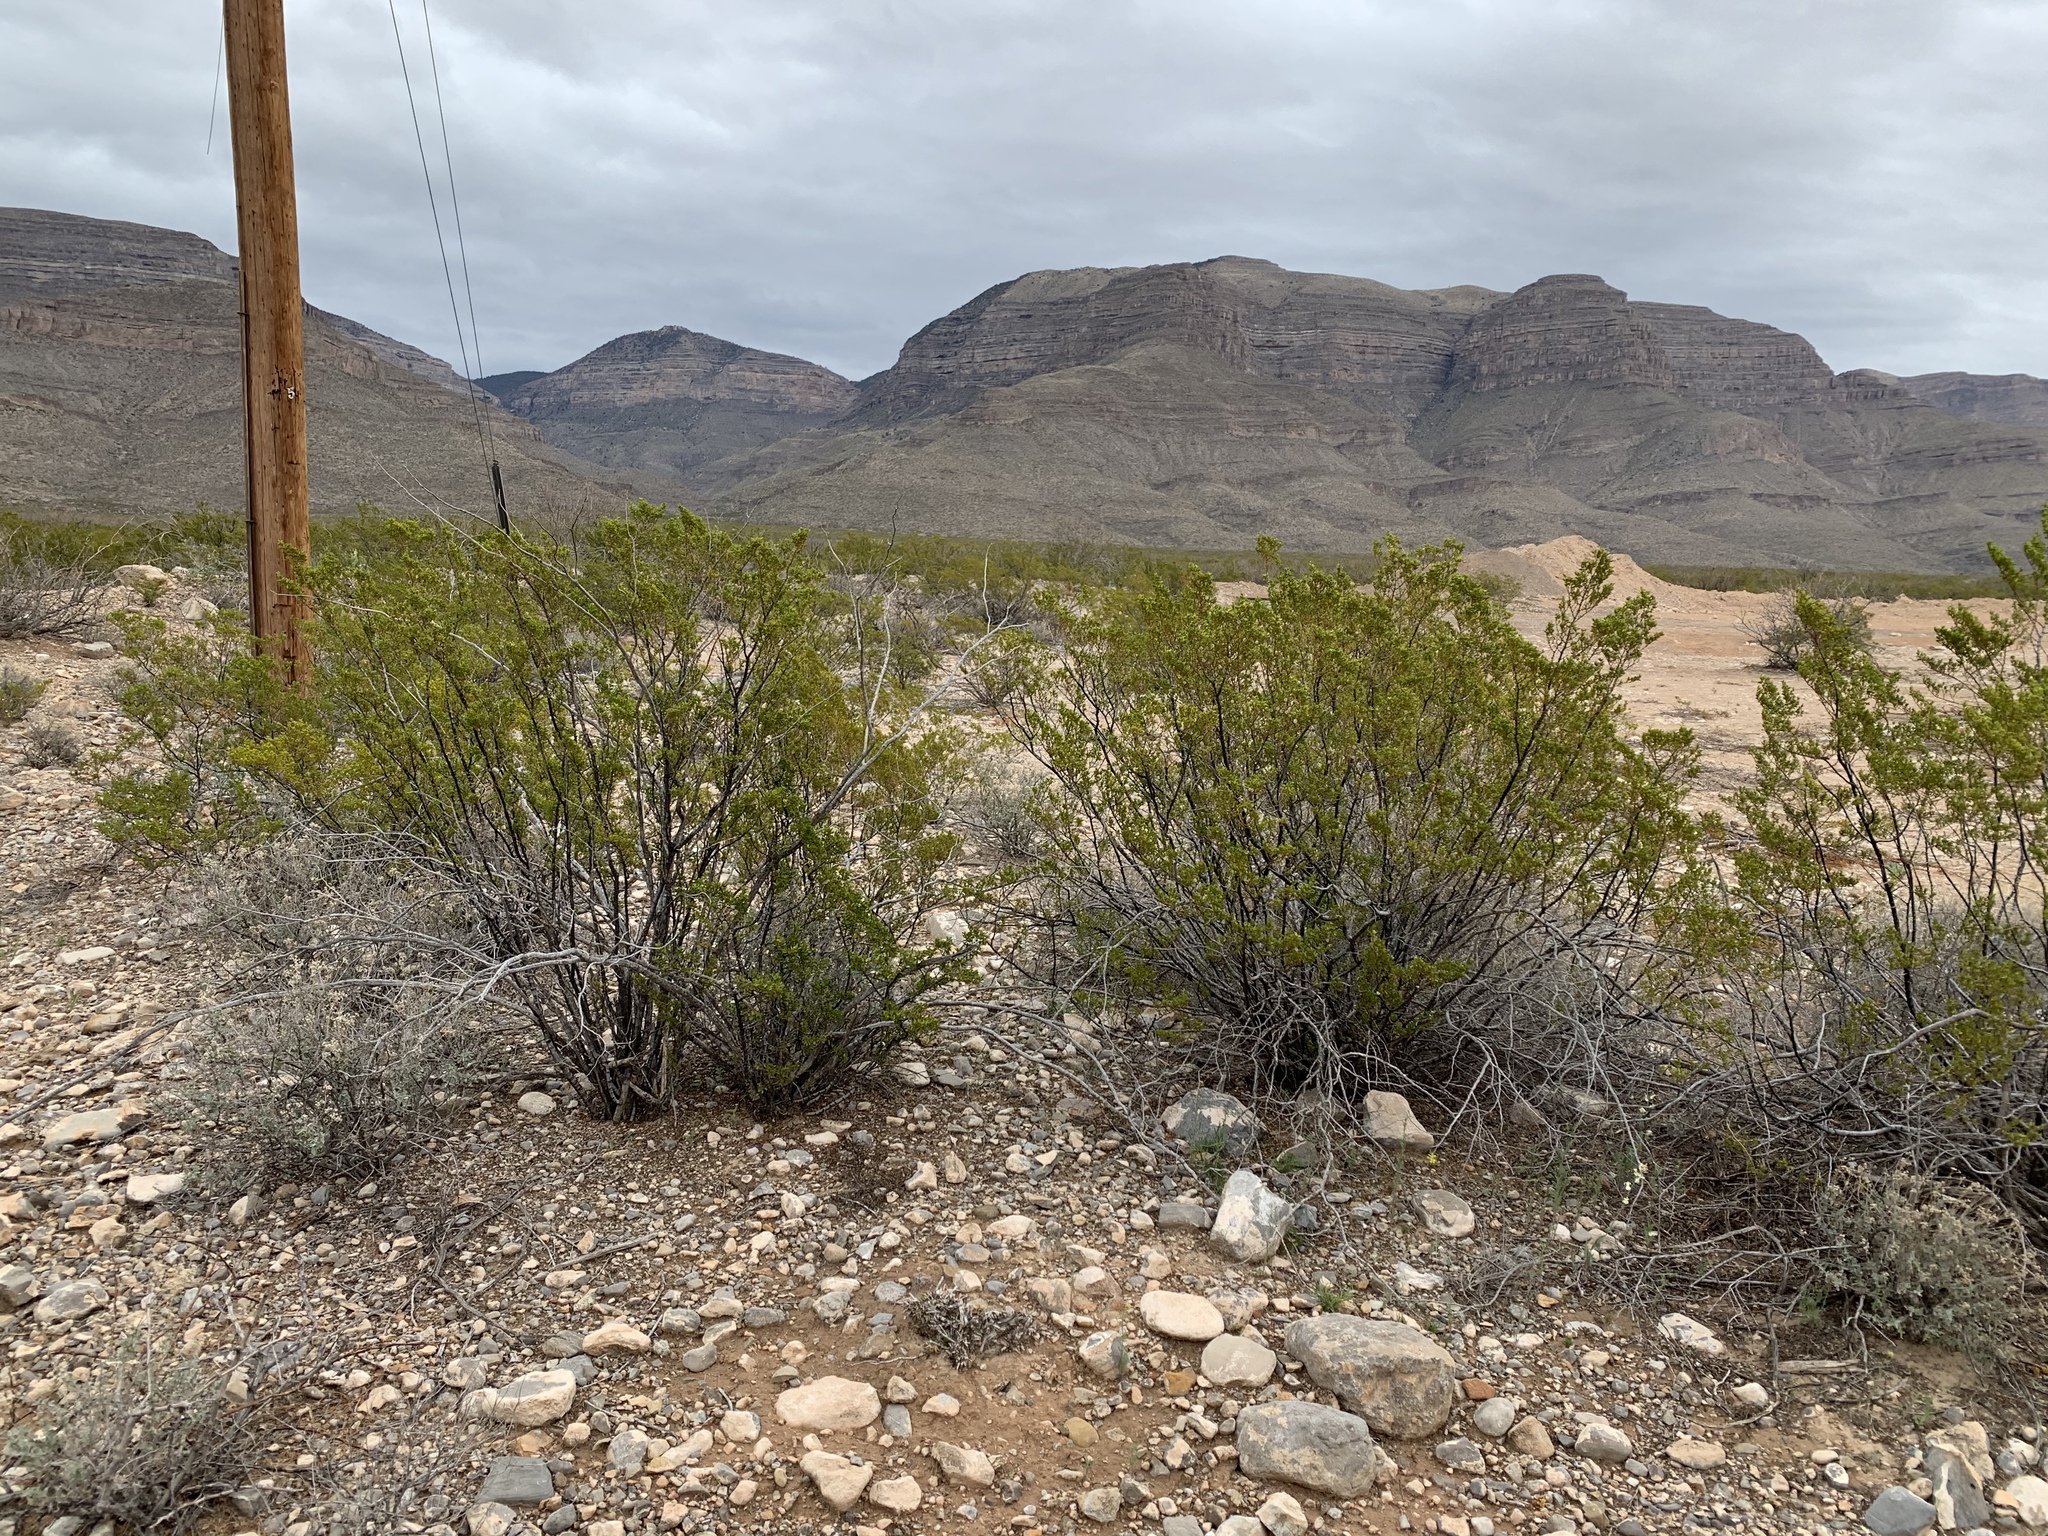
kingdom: Plantae
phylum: Tracheophyta
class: Magnoliopsida
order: Zygophyllales
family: Zygophyllaceae
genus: Larrea
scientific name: Larrea tridentata
